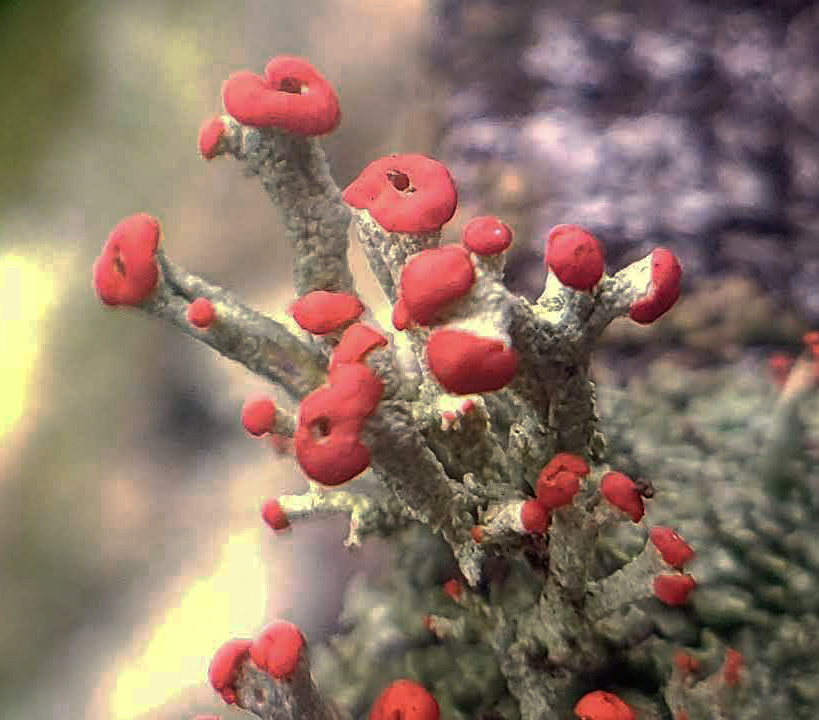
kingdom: Fungi
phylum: Ascomycota
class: Lecanoromycetes
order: Lecanorales
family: Cladoniaceae
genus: Cladonia
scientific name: Cladonia cristatella
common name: British soldier lichen
